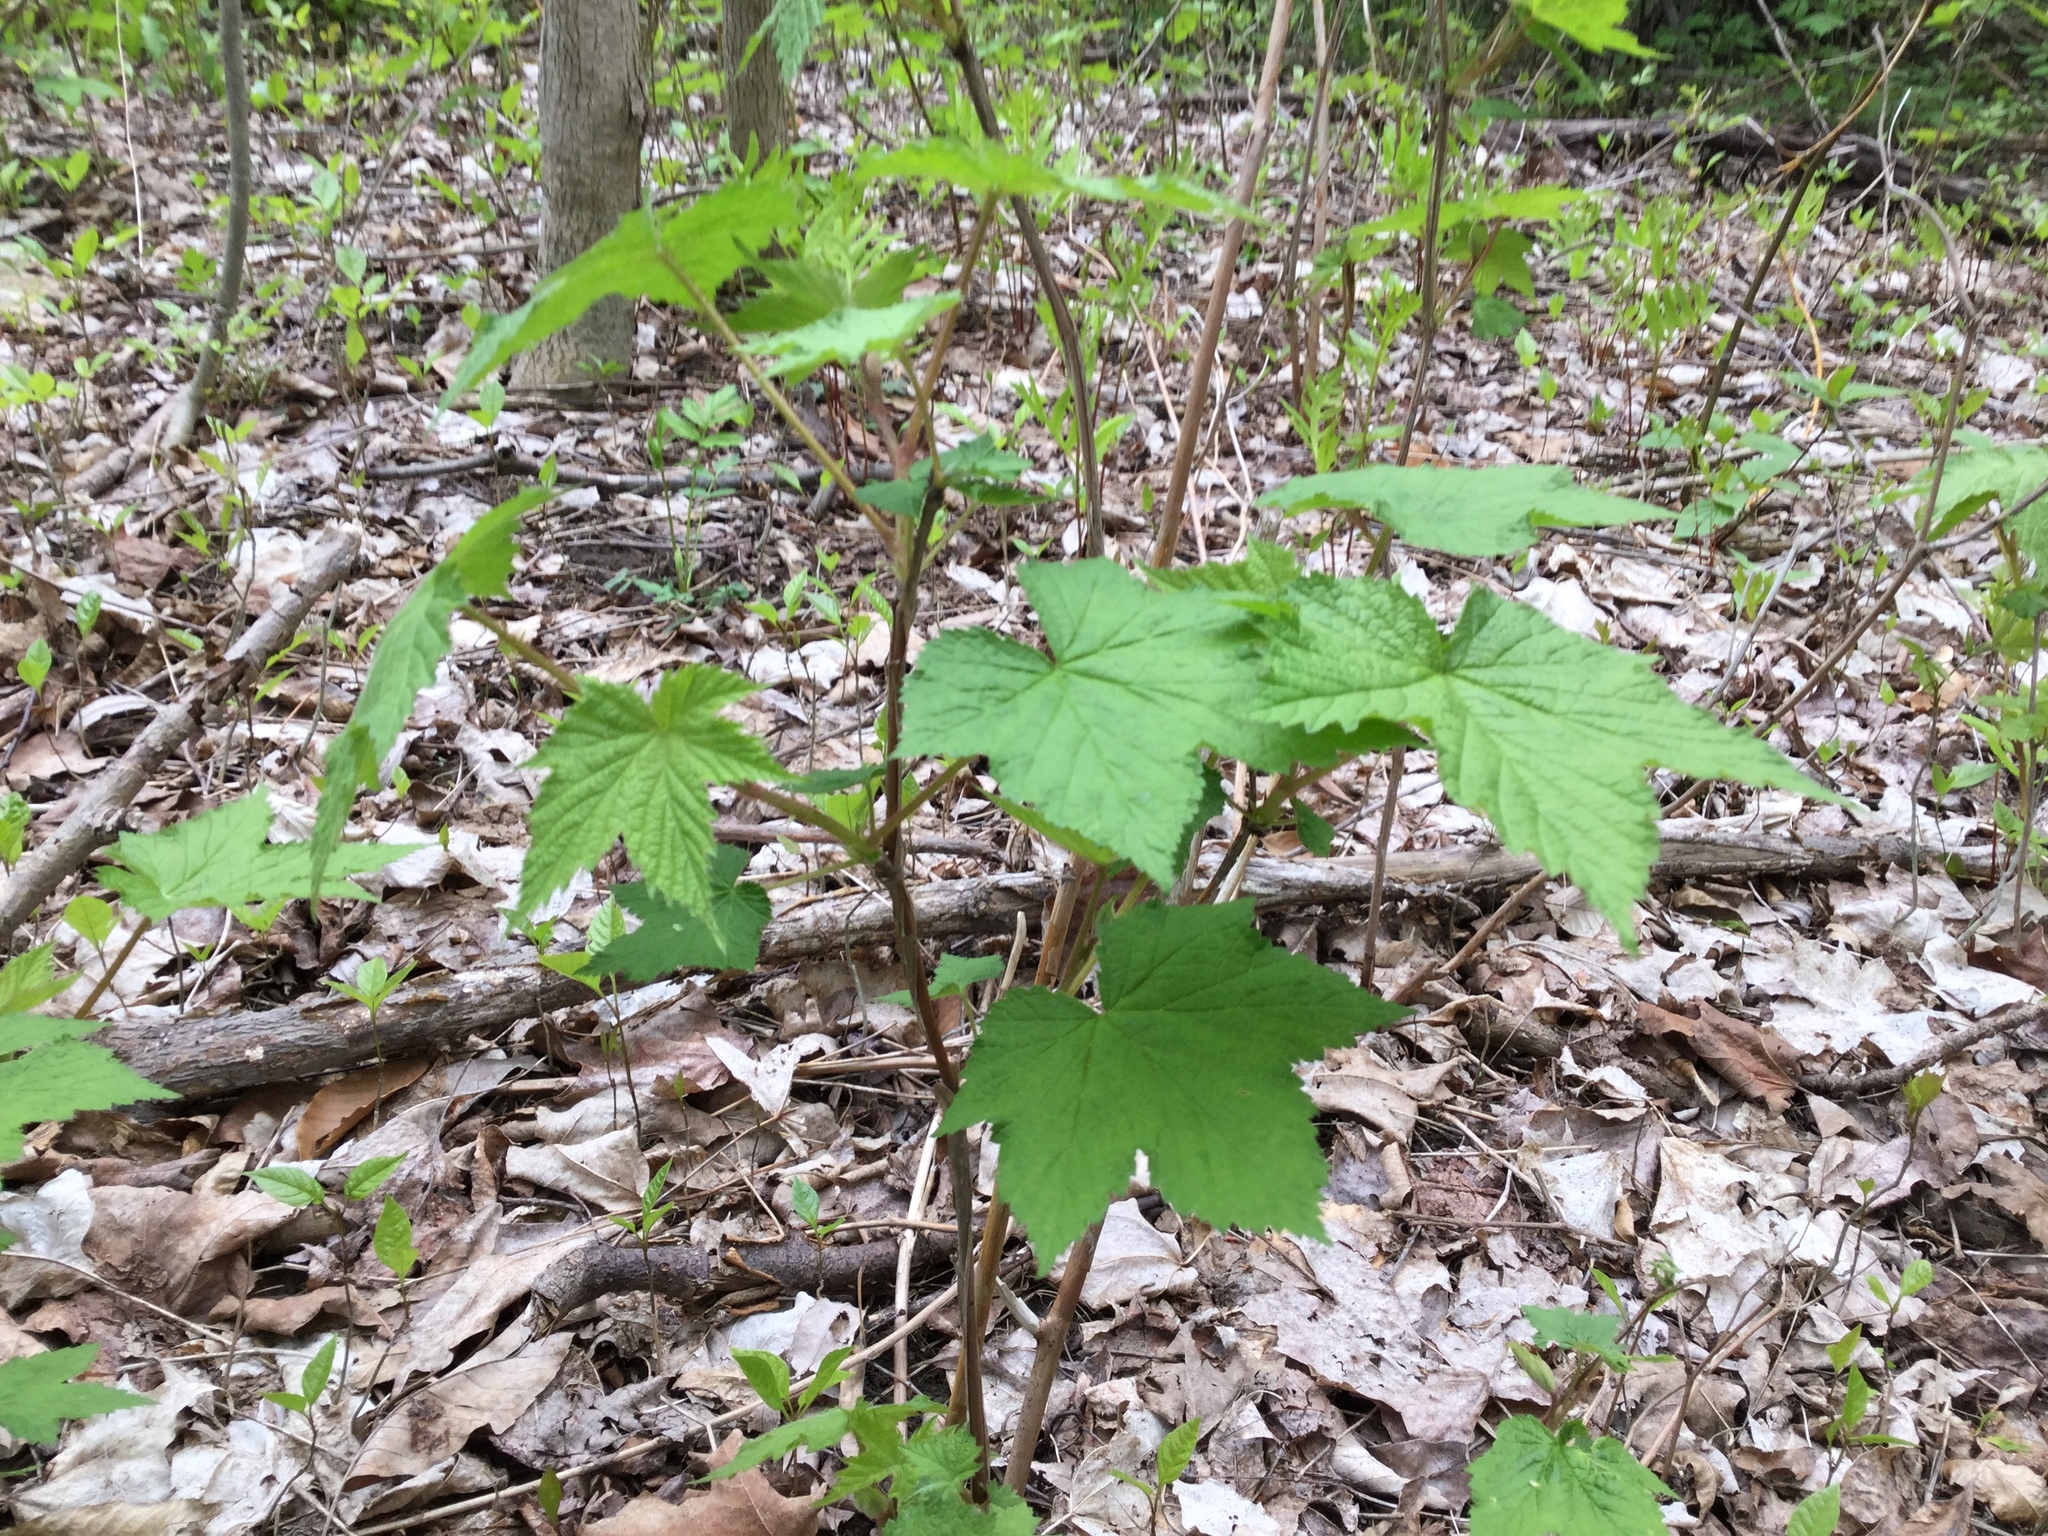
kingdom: Plantae
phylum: Tracheophyta
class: Magnoliopsida
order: Rosales
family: Rosaceae
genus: Rubus
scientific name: Rubus odoratus
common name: Purple-flowered raspberry
